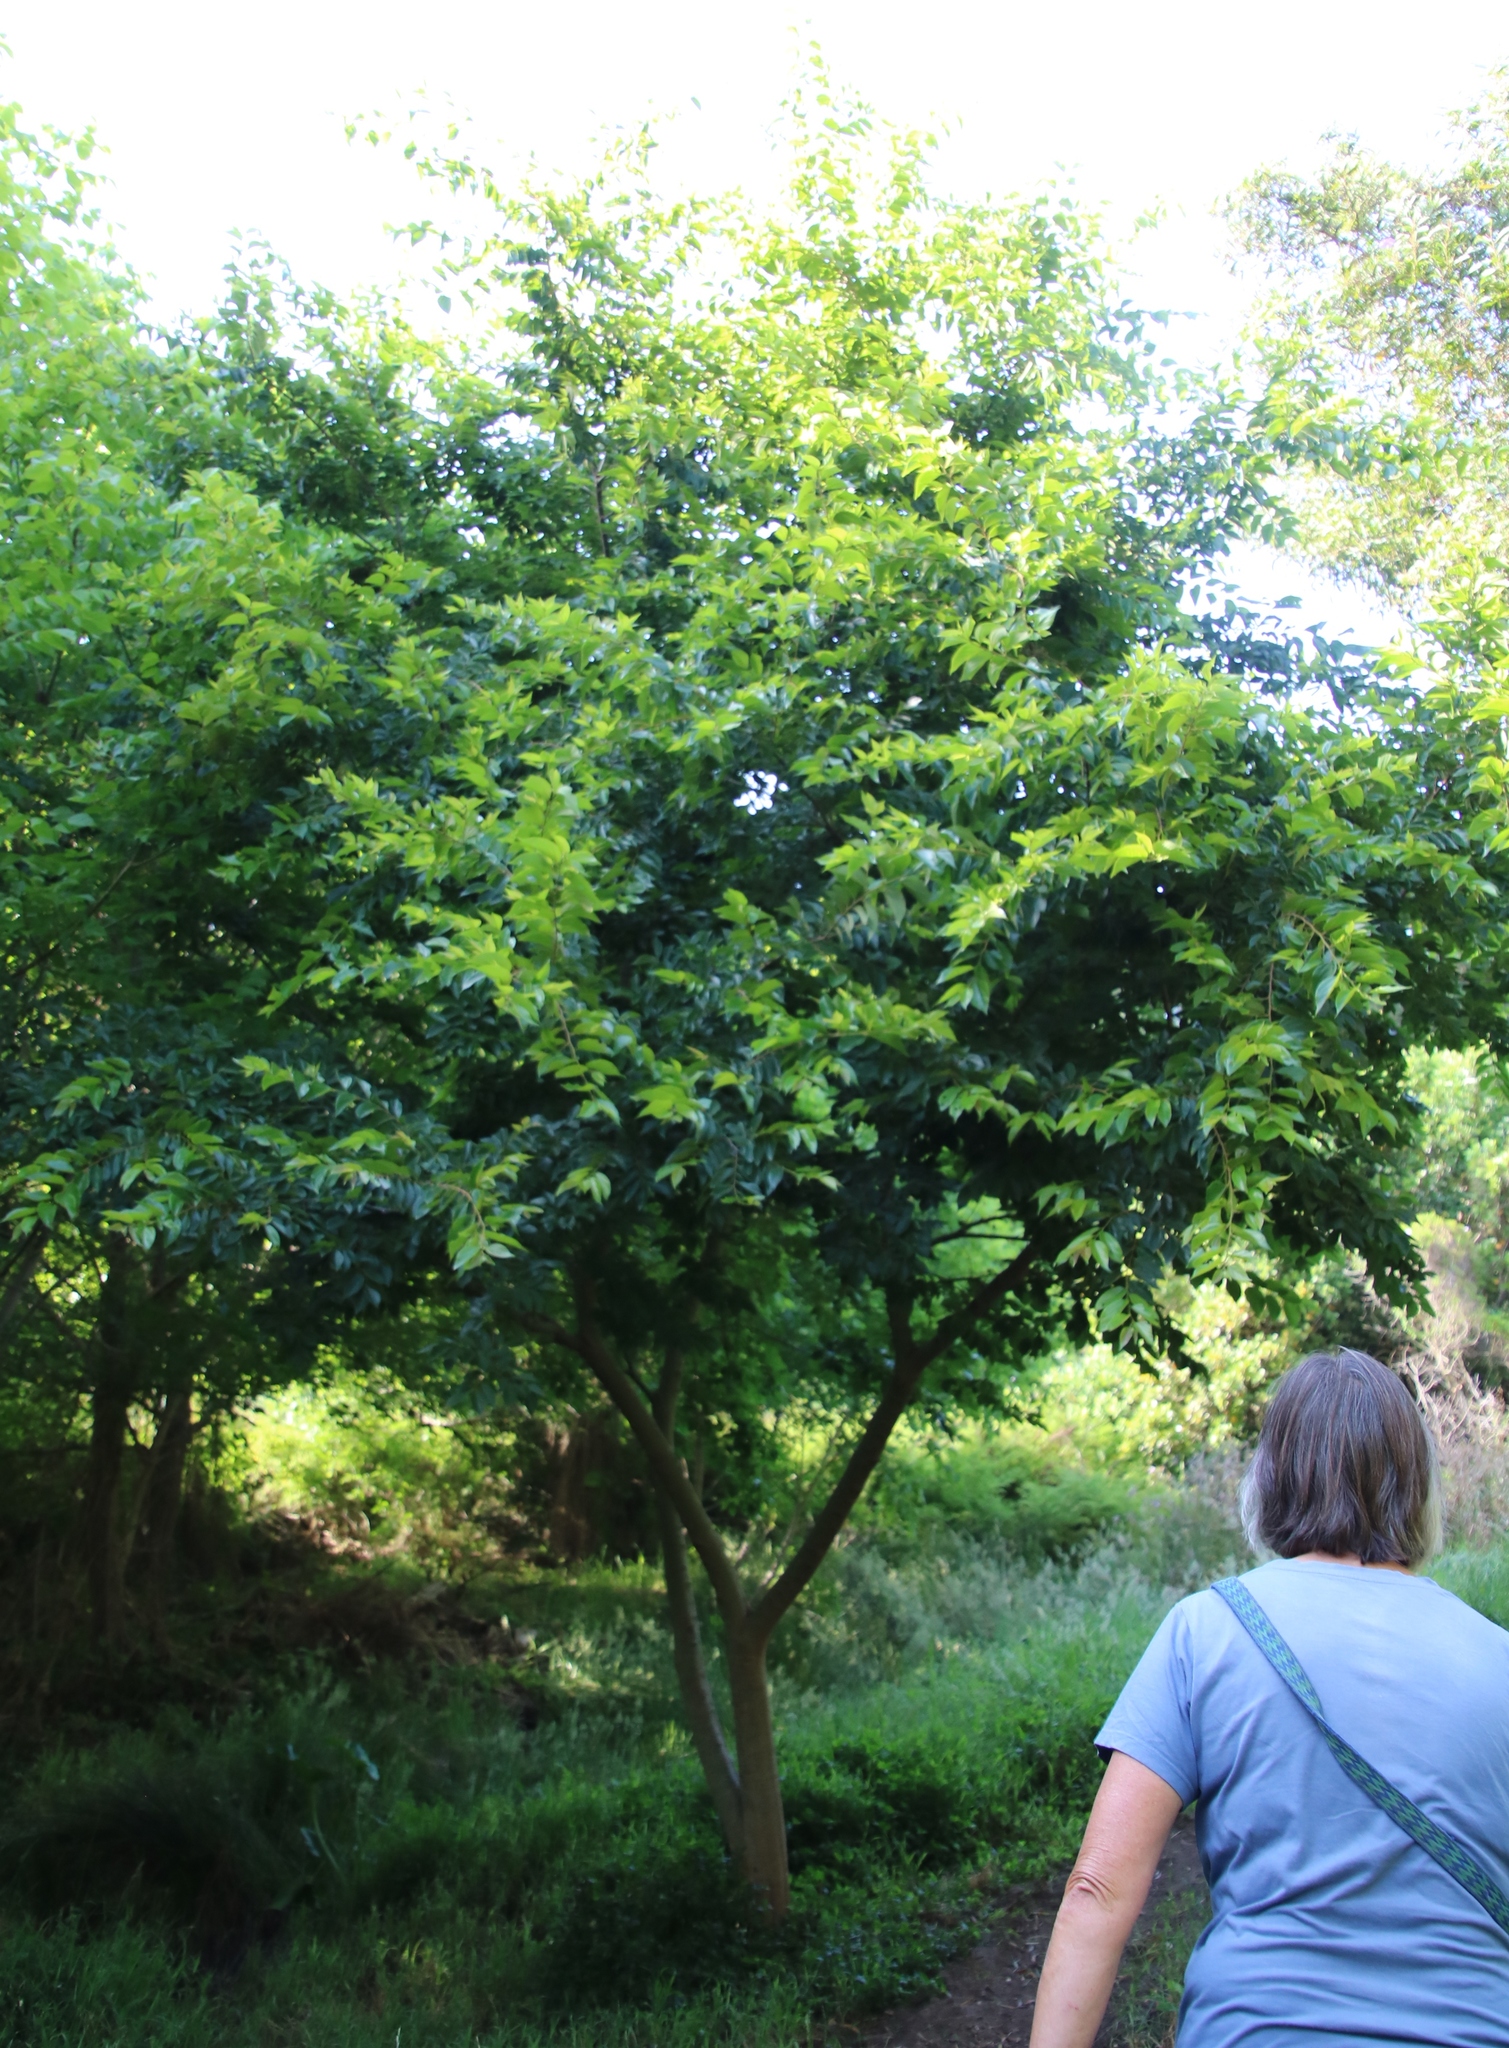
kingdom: Plantae
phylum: Tracheophyta
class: Magnoliopsida
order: Rosales
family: Cannabaceae
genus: Celtis
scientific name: Celtis sinensis
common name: Chinese hackberry
